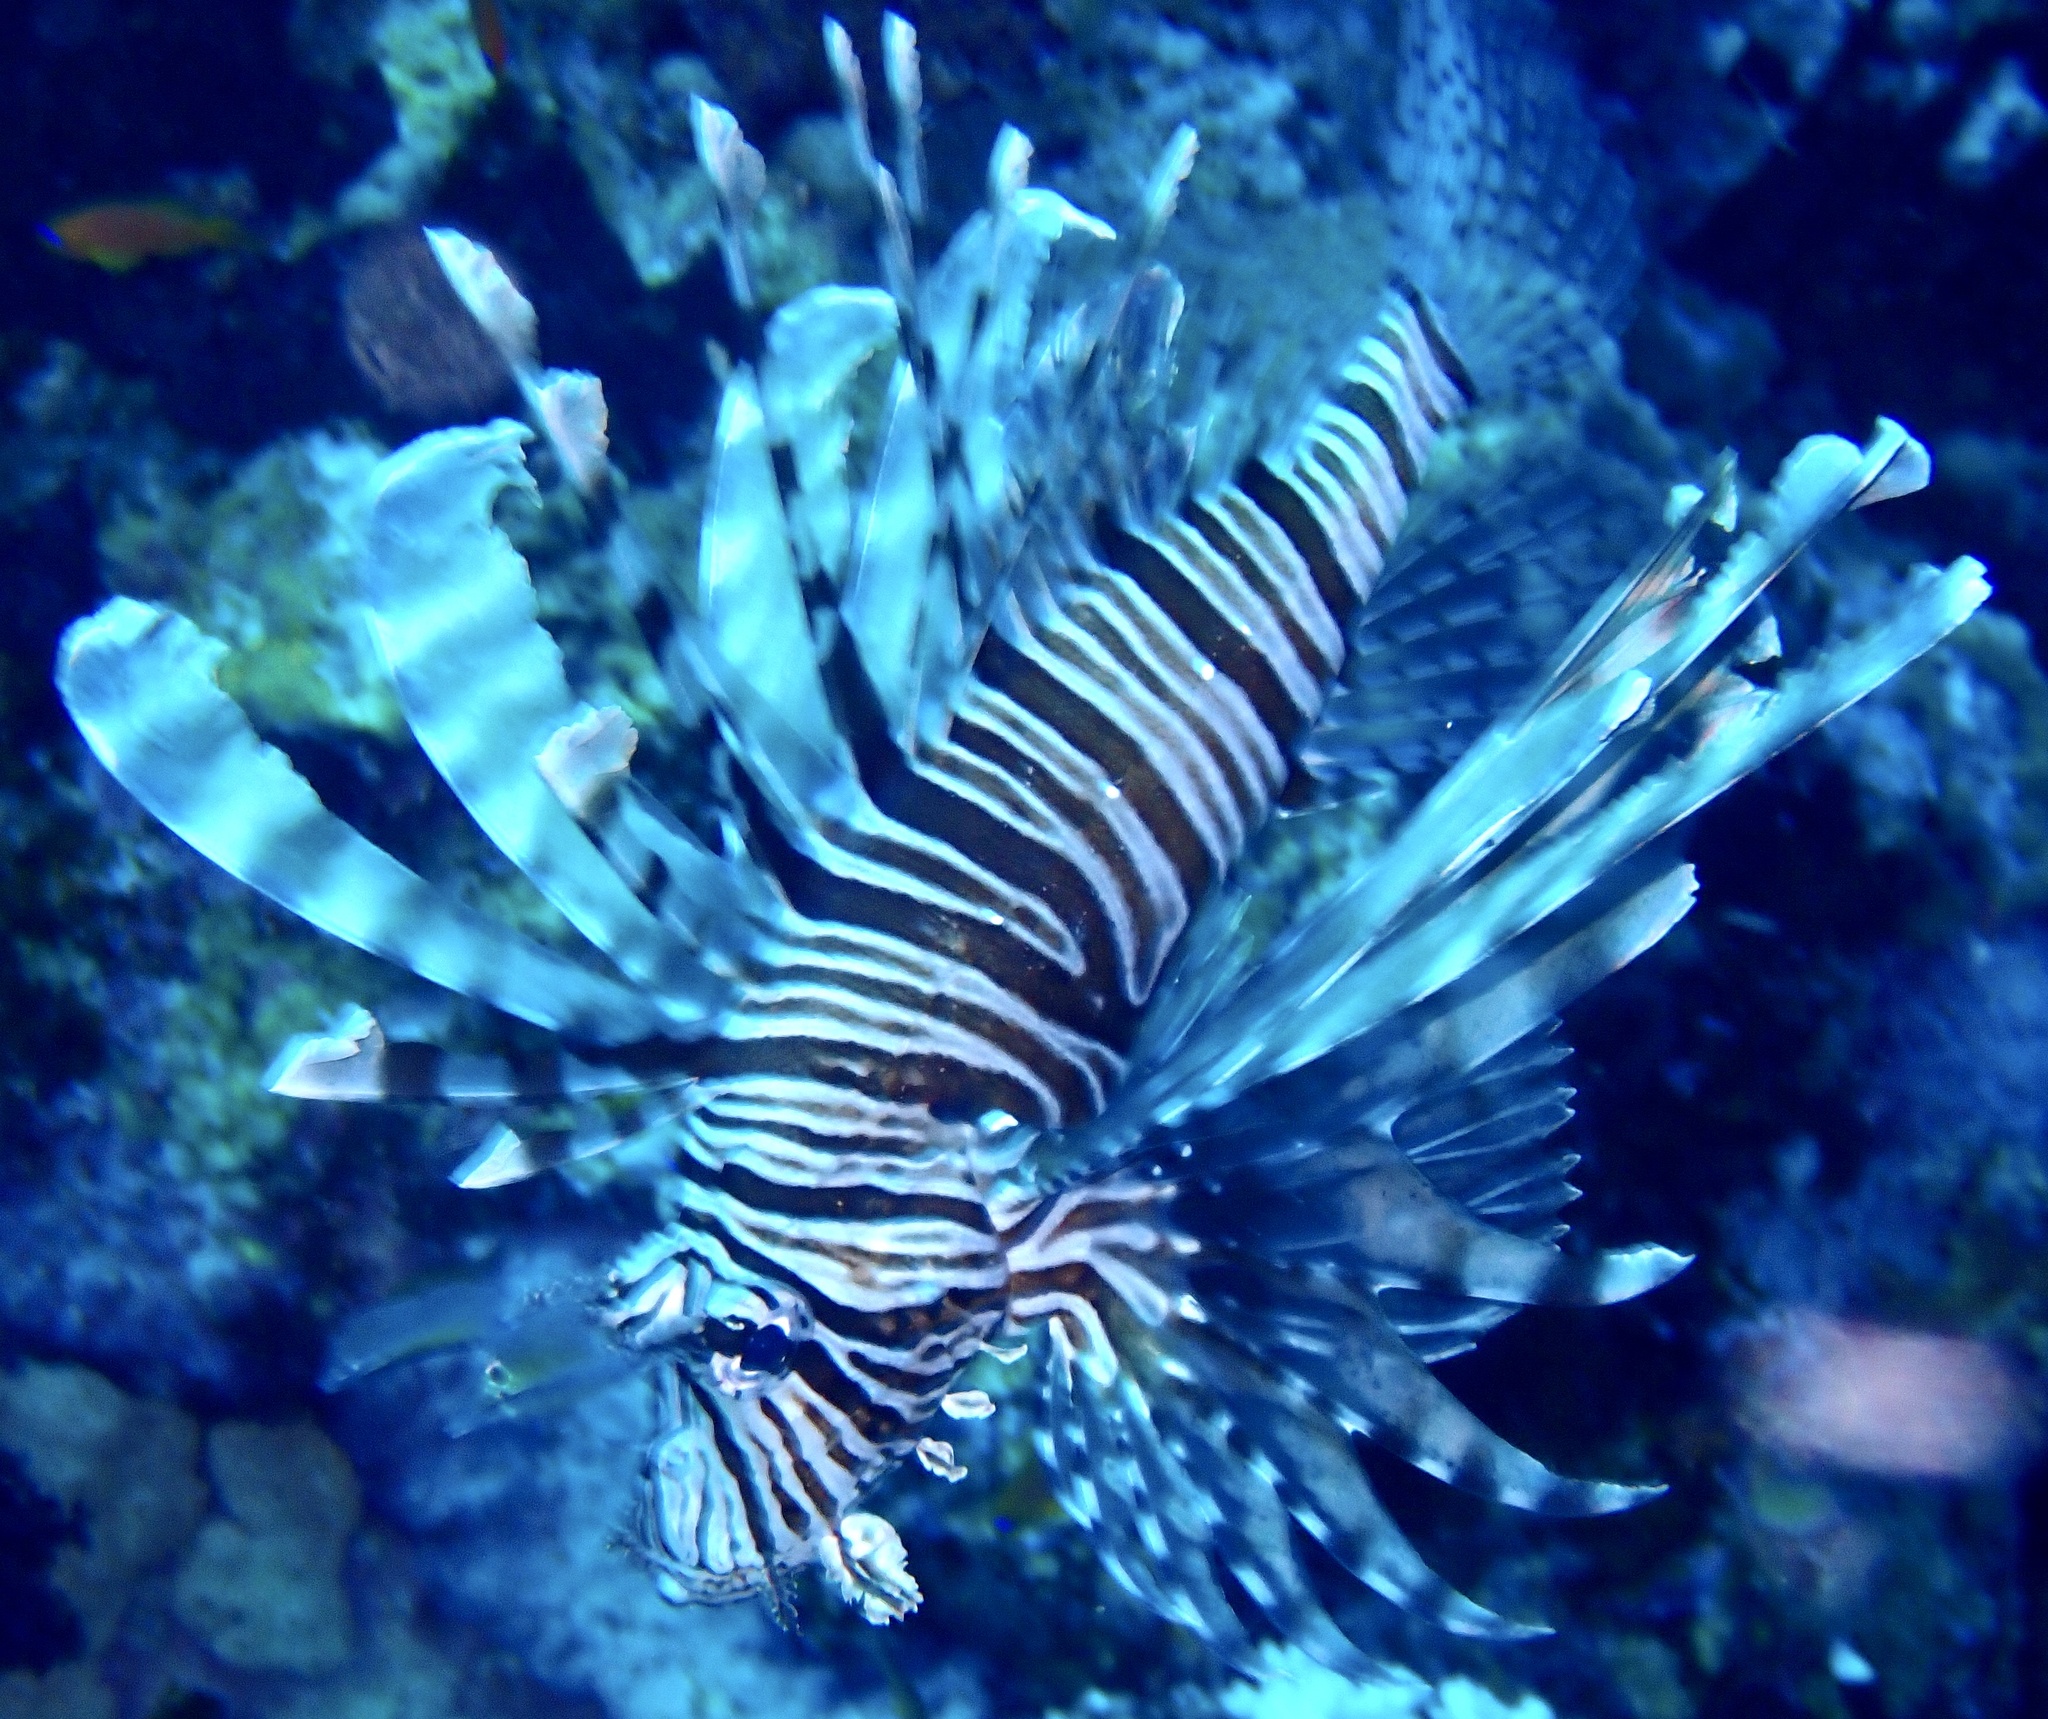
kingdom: Animalia
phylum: Chordata
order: Scorpaeniformes
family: Scorpaenidae
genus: Pterois
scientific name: Pterois miles
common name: Devil firefish
